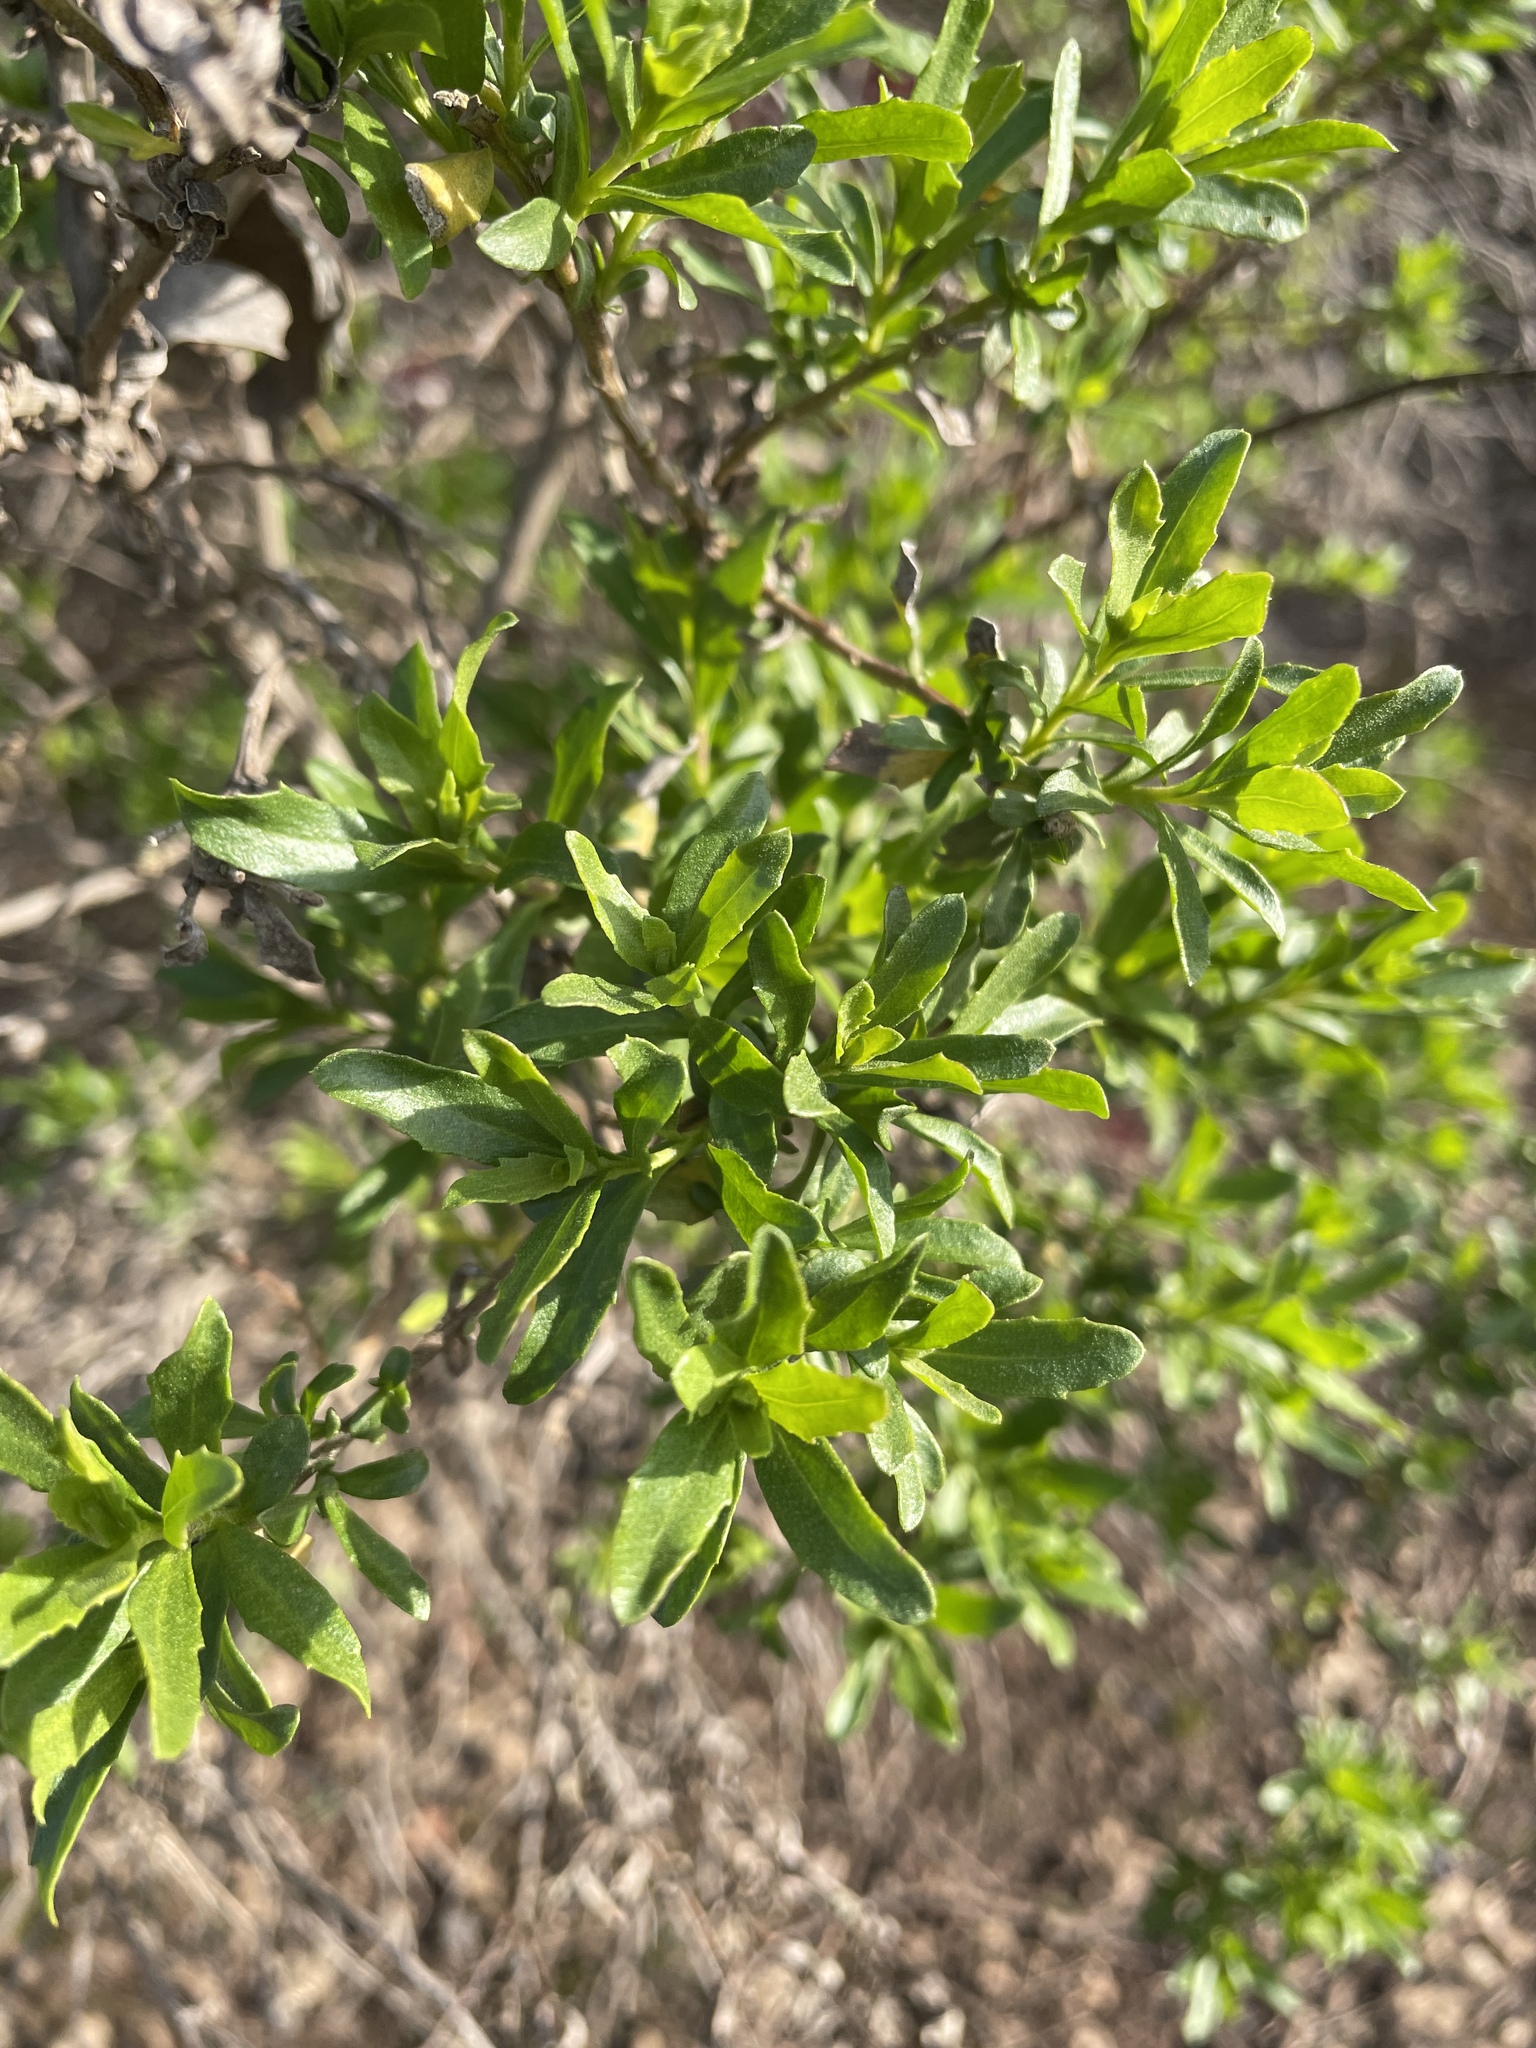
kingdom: Plantae
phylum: Tracheophyta
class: Magnoliopsida
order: Asterales
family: Asteraceae
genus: Baccharis
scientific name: Baccharis pilularis
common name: Coyotebrush
